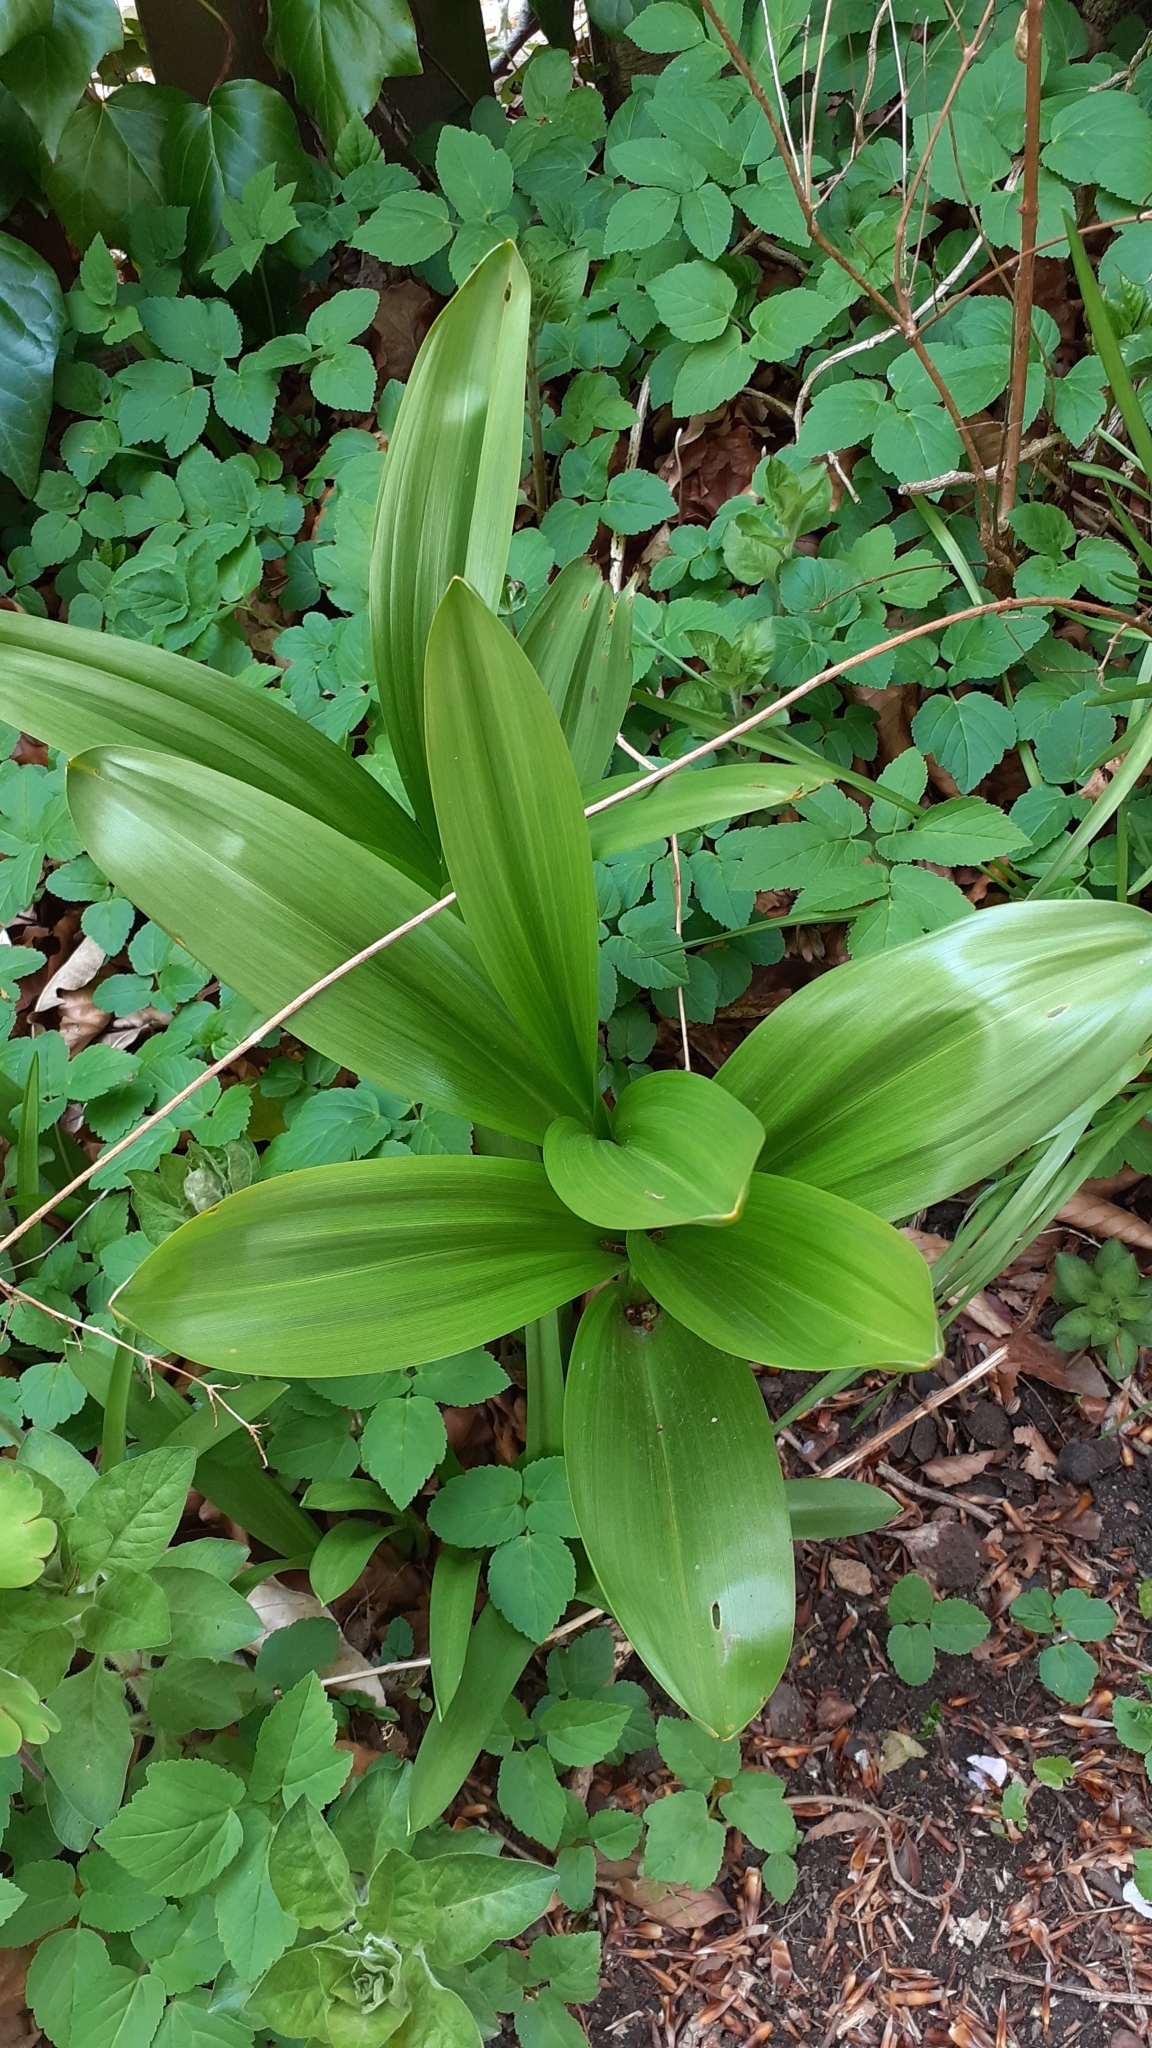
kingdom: Plantae
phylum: Tracheophyta
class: Liliopsida
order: Liliales
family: Colchicaceae
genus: Colchicum
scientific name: Colchicum autumnale
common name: Autumn crocus
